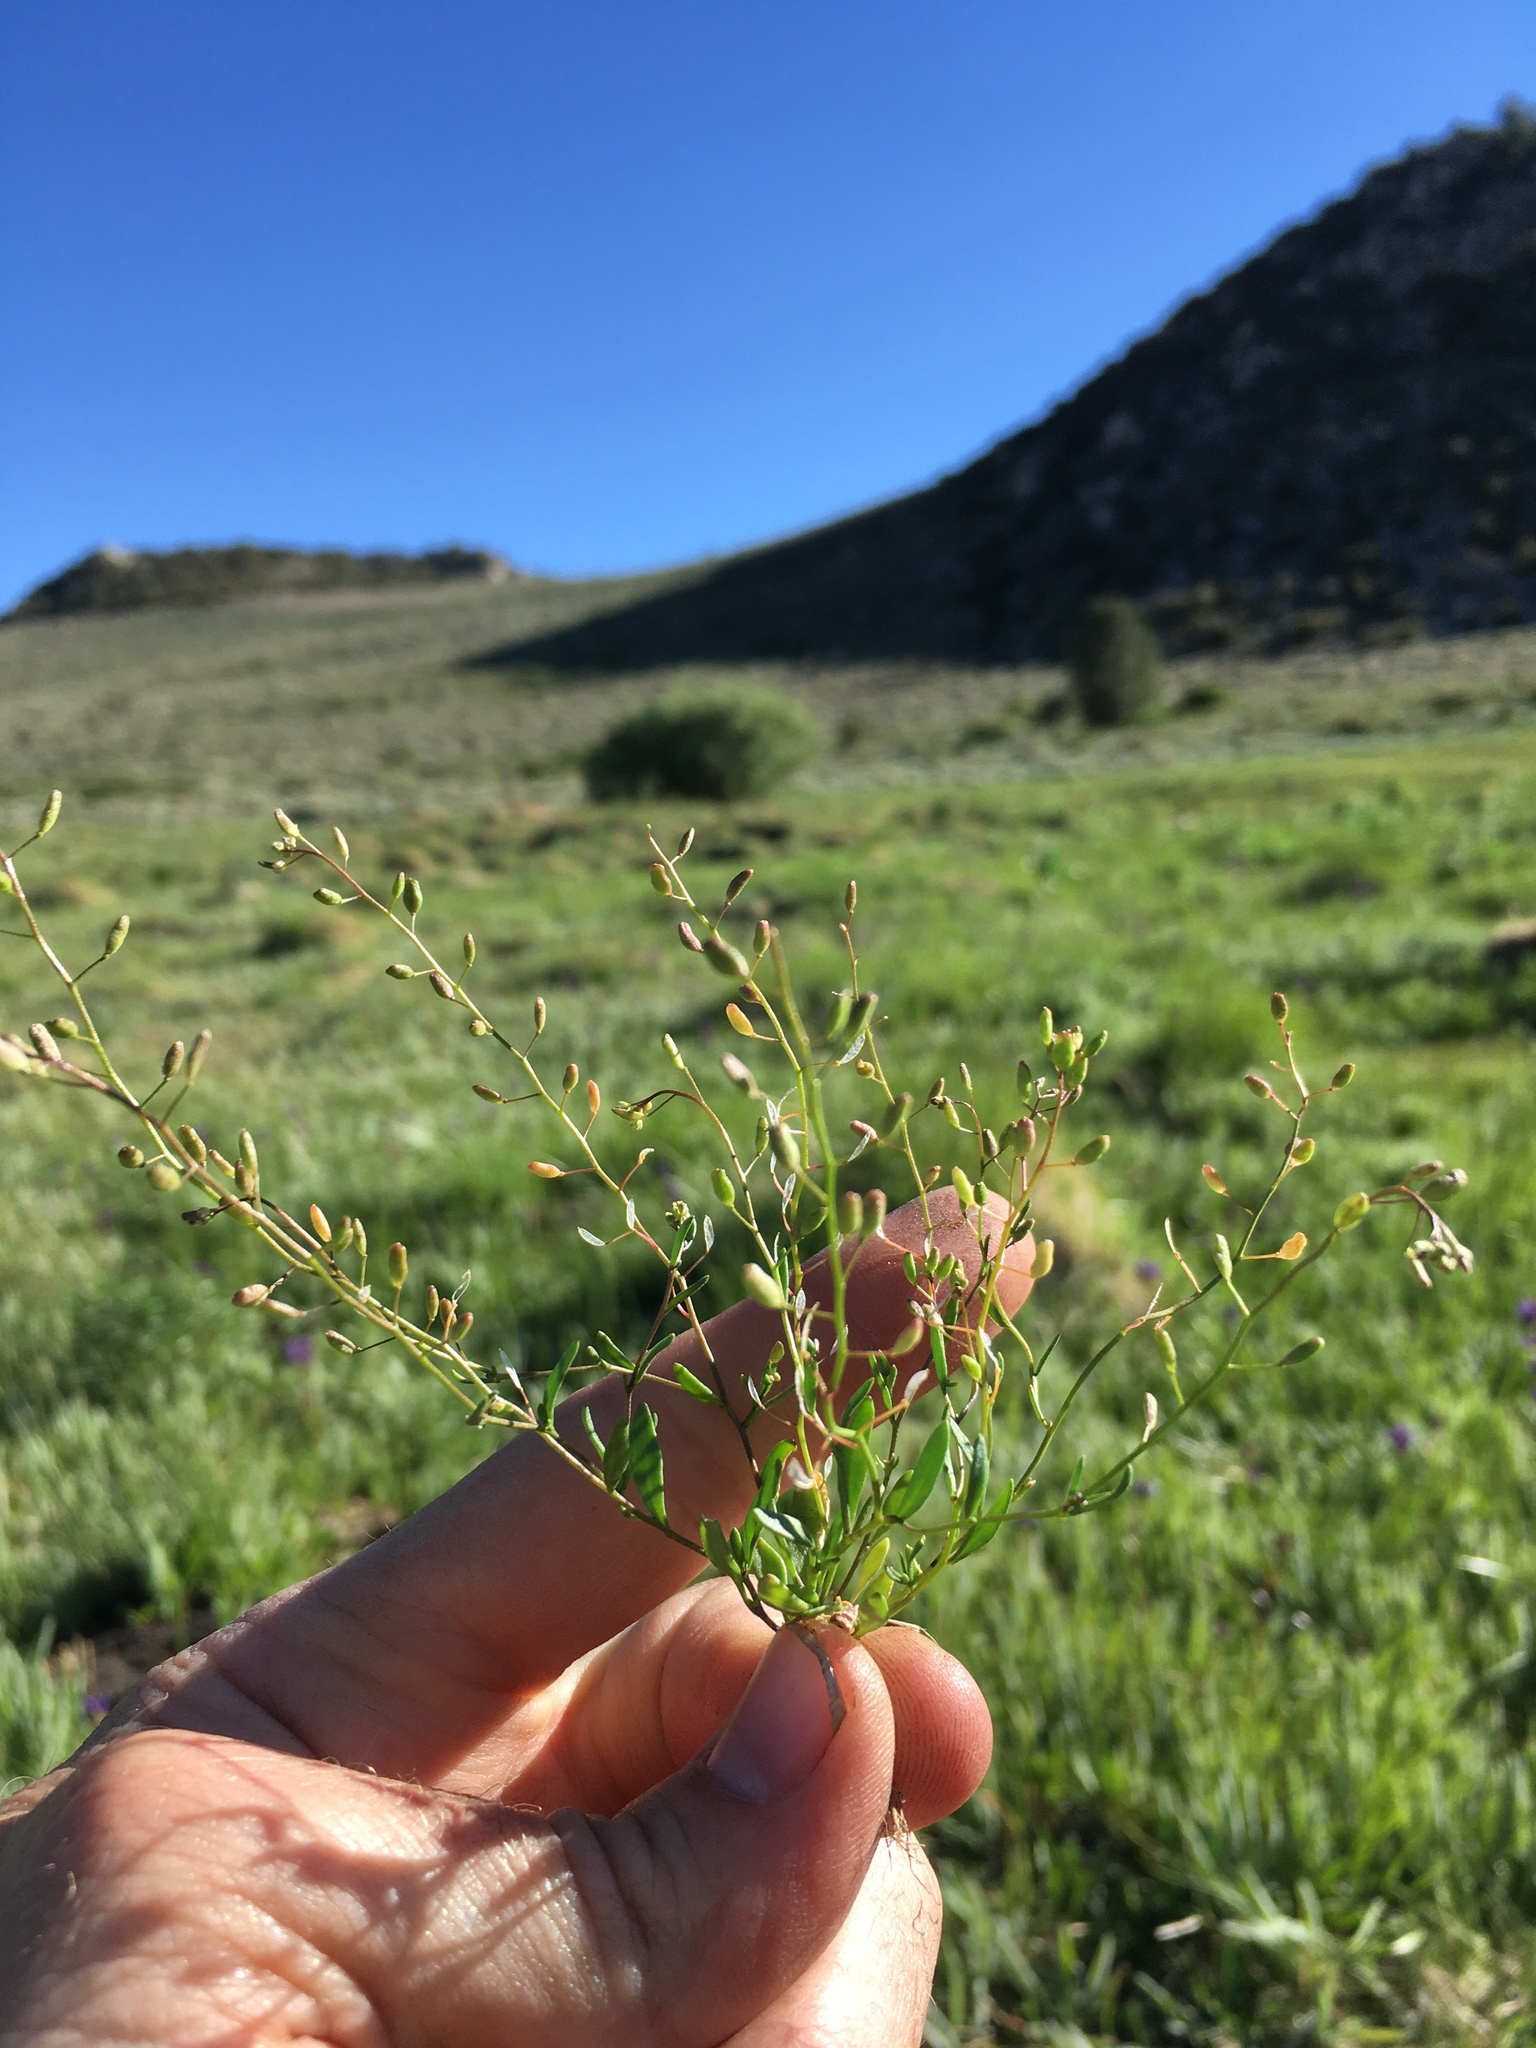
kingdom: Plantae
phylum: Tracheophyta
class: Magnoliopsida
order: Brassicales
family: Brassicaceae
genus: Hornungia
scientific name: Hornungia procumbens
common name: Oval purse
